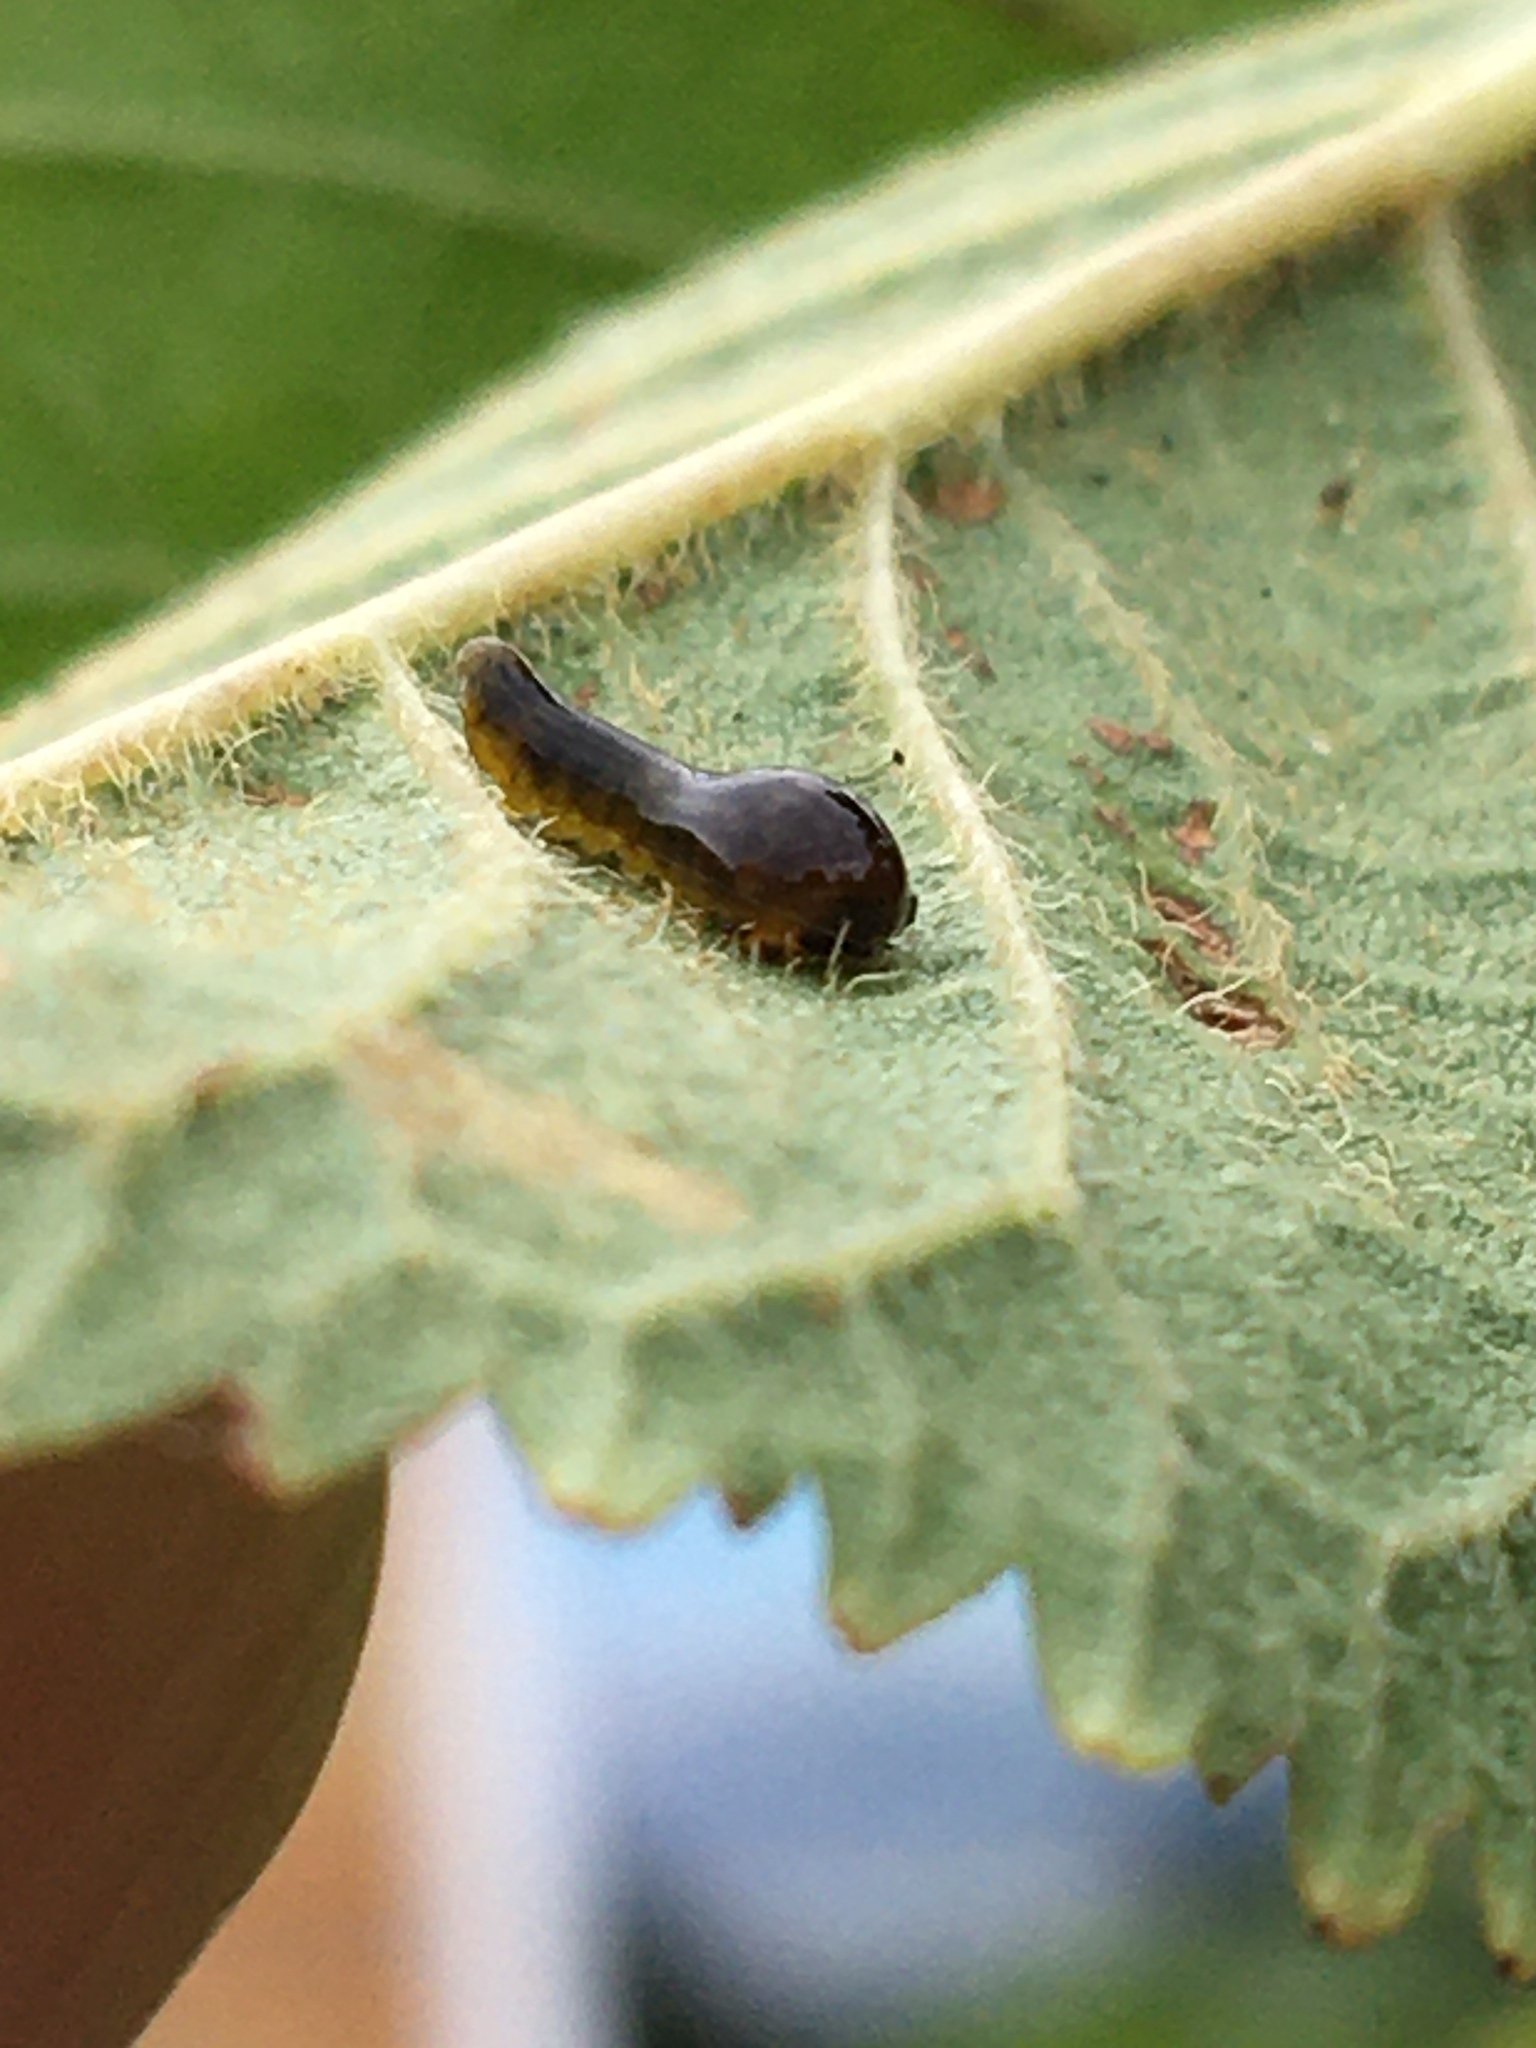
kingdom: Animalia
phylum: Arthropoda
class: Insecta
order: Hymenoptera
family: Tenthredinidae
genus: Caliroa
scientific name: Caliroa cerasi
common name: Pear sawfly
